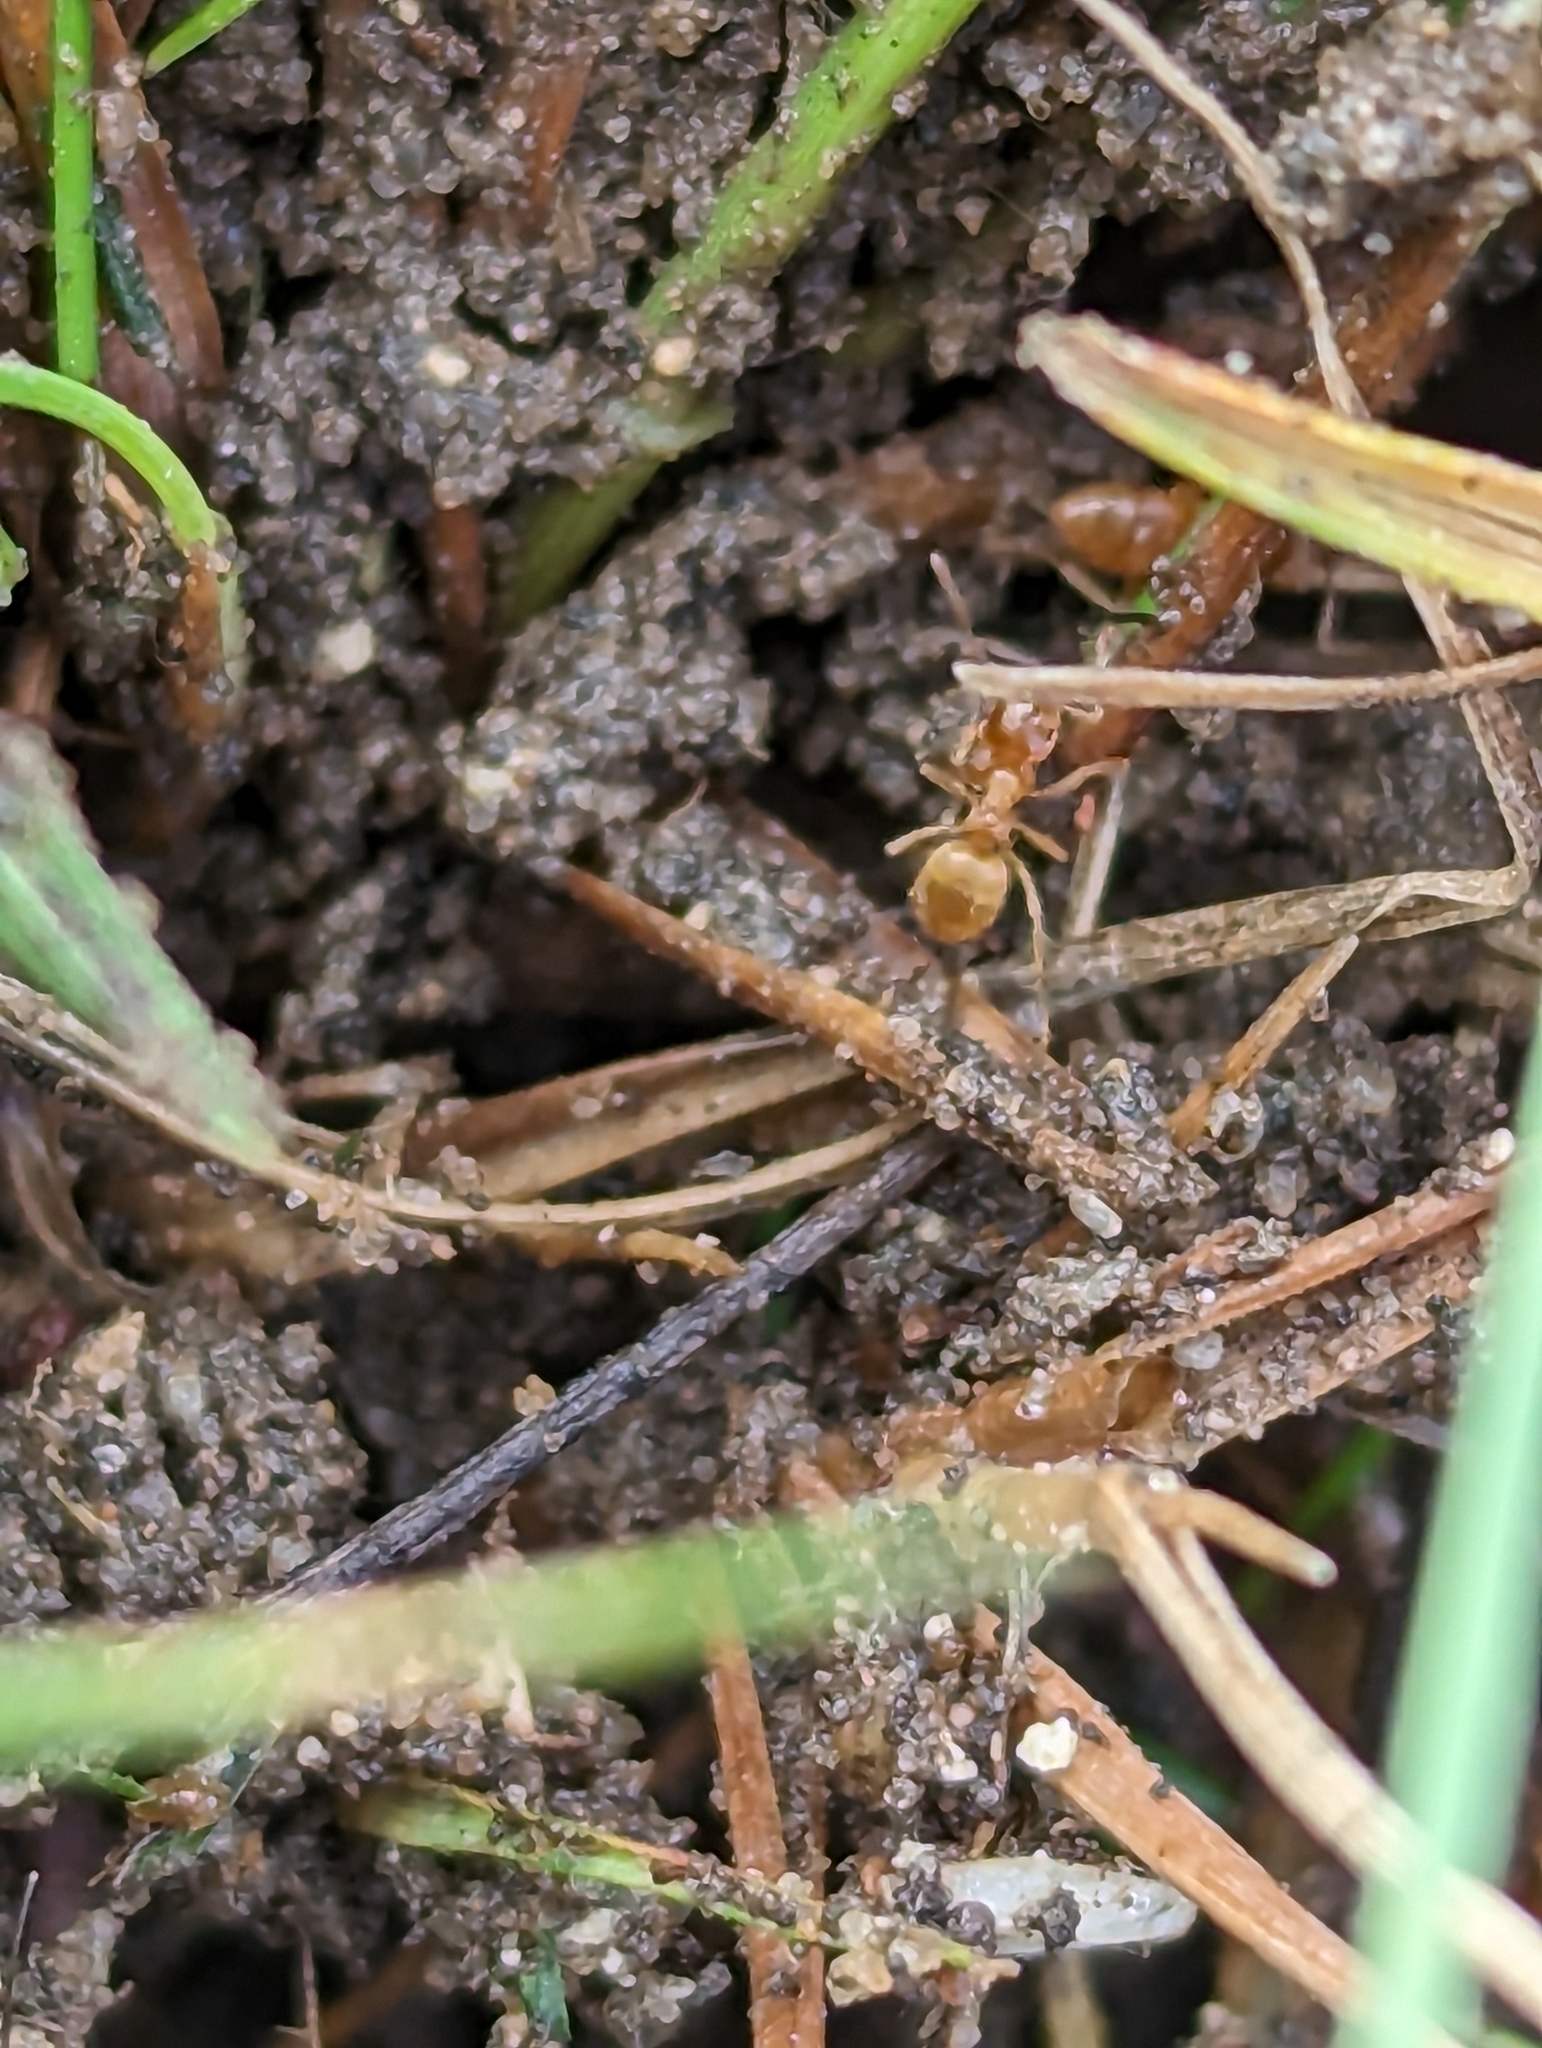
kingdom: Animalia
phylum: Arthropoda
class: Insecta
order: Hymenoptera
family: Formicidae
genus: Lasius
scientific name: Lasius flavus
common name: Blond field ant
